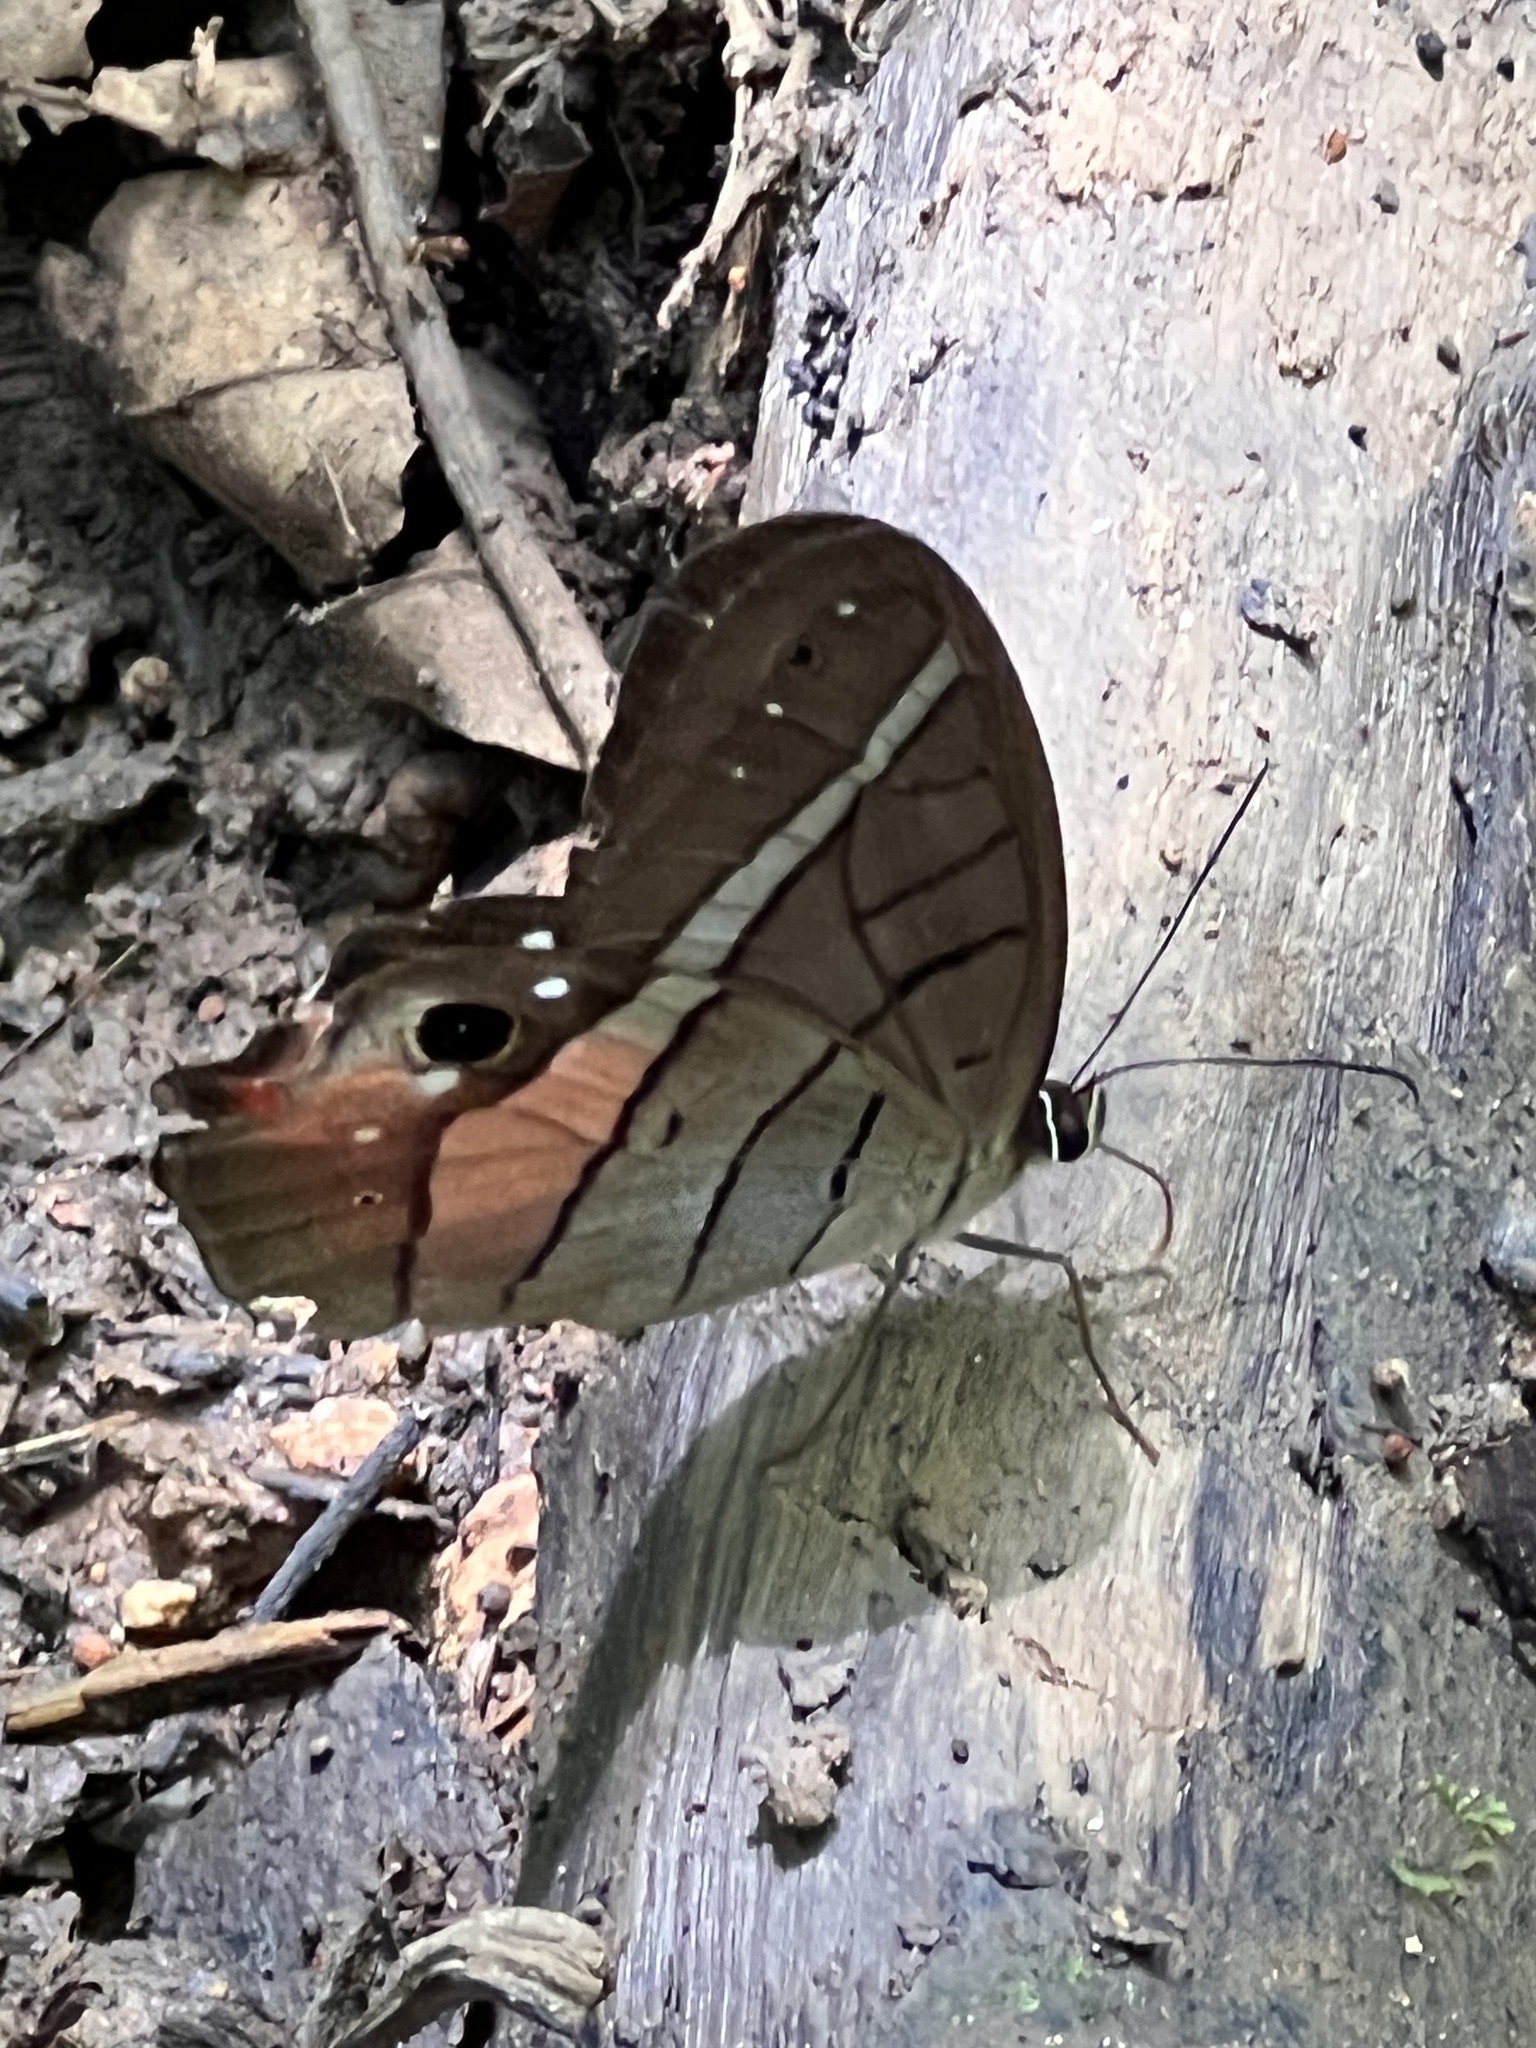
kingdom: Animalia
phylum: Arthropoda
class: Insecta
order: Lepidoptera
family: Nymphalidae
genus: Pierella
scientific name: Pierella helvina
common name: Red-washed satyr
